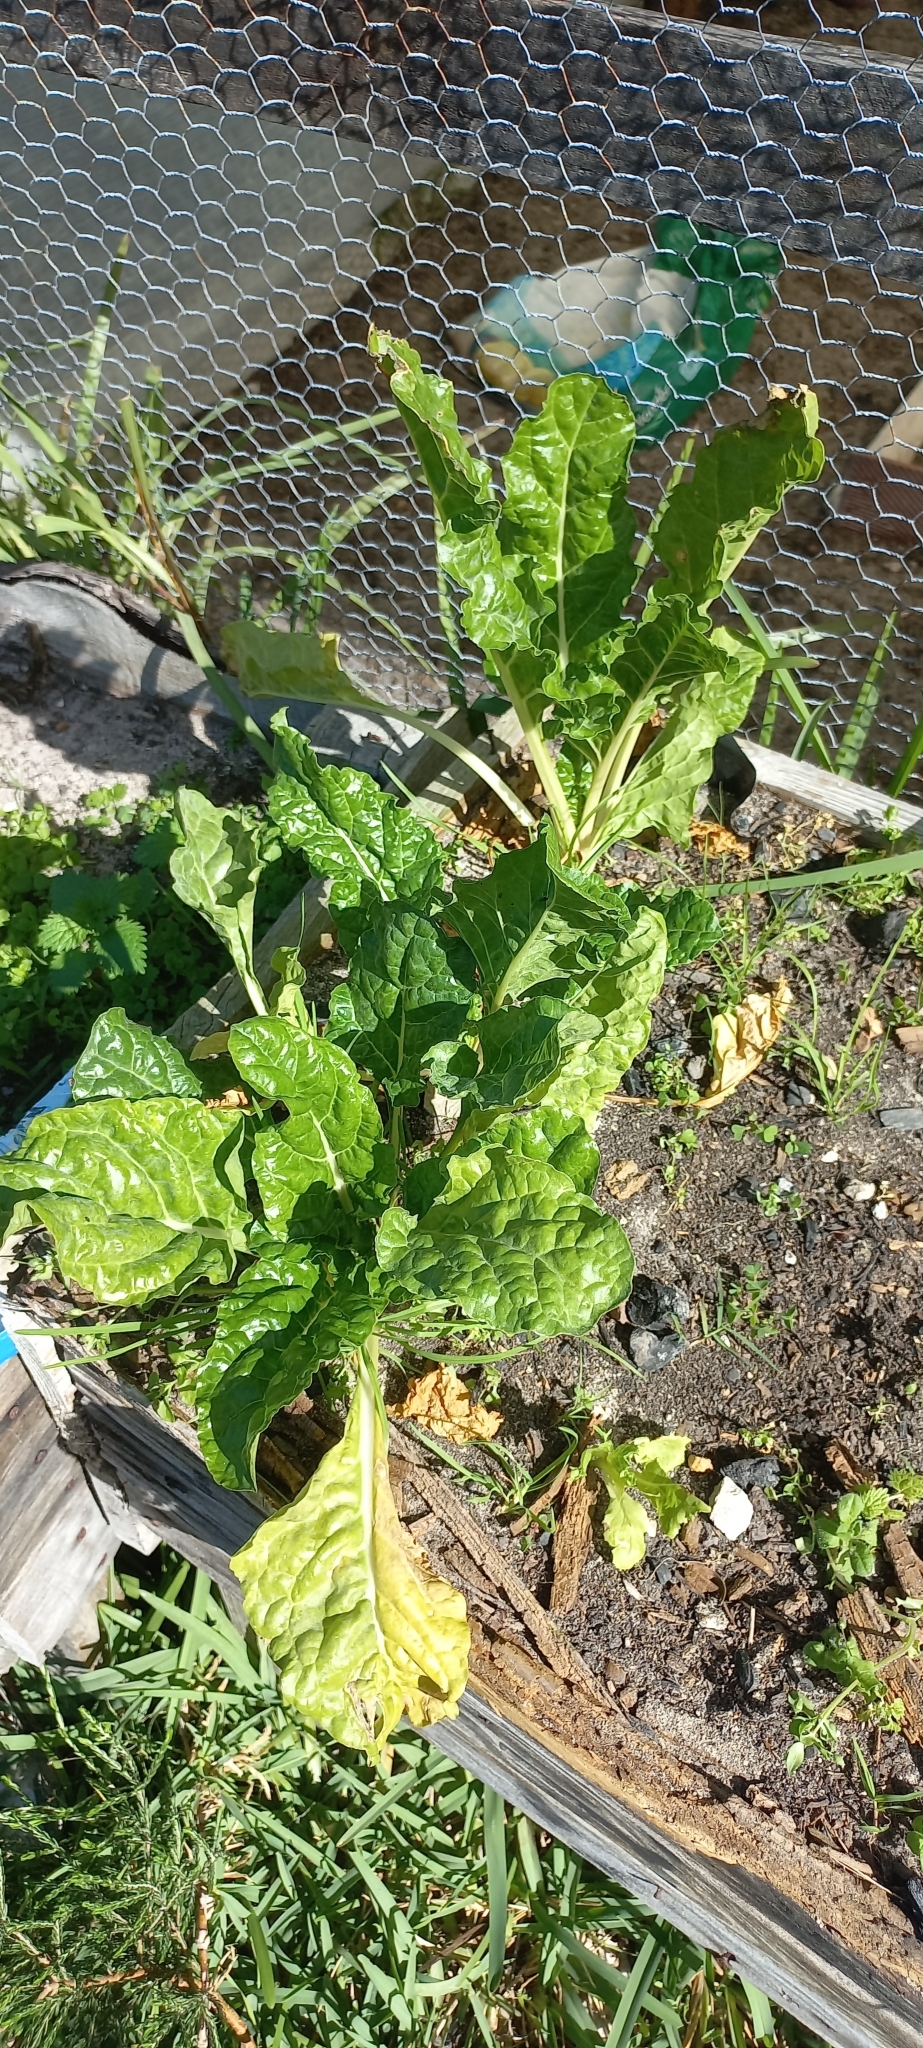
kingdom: Plantae
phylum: Tracheophyta
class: Magnoliopsida
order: Caryophyllales
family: Amaranthaceae
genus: Beta
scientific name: Beta vulgaris
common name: Beet
